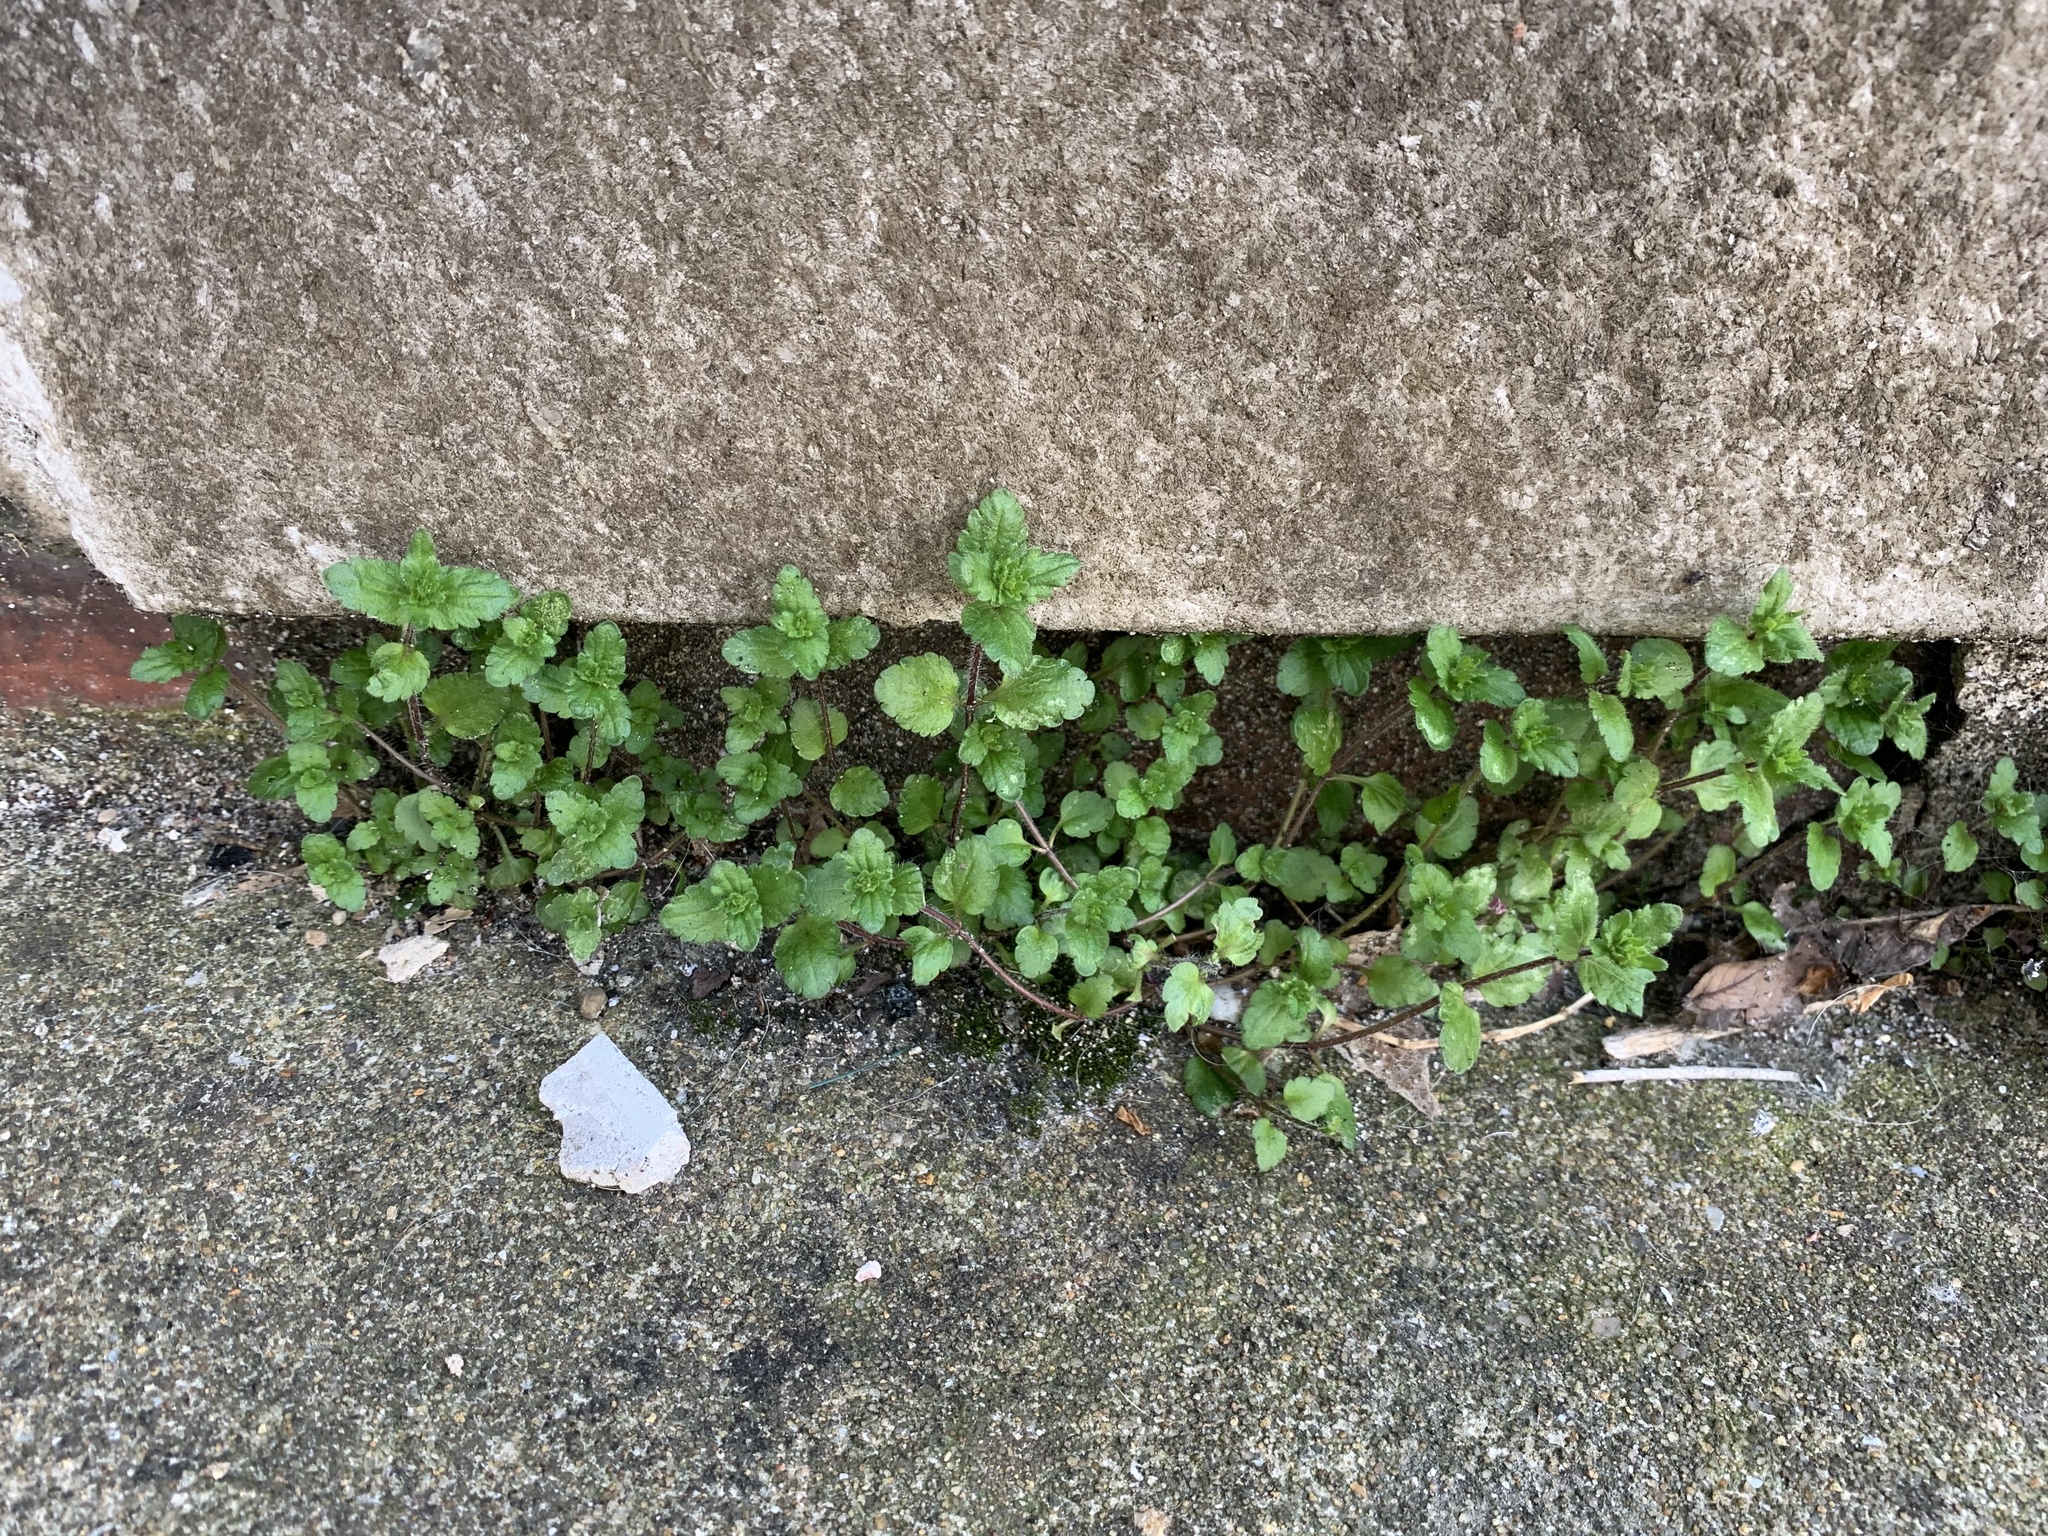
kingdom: Plantae
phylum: Tracheophyta
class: Magnoliopsida
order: Lamiales
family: Plantaginaceae
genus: Veronica
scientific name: Veronica arvensis
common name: Corn speedwell
